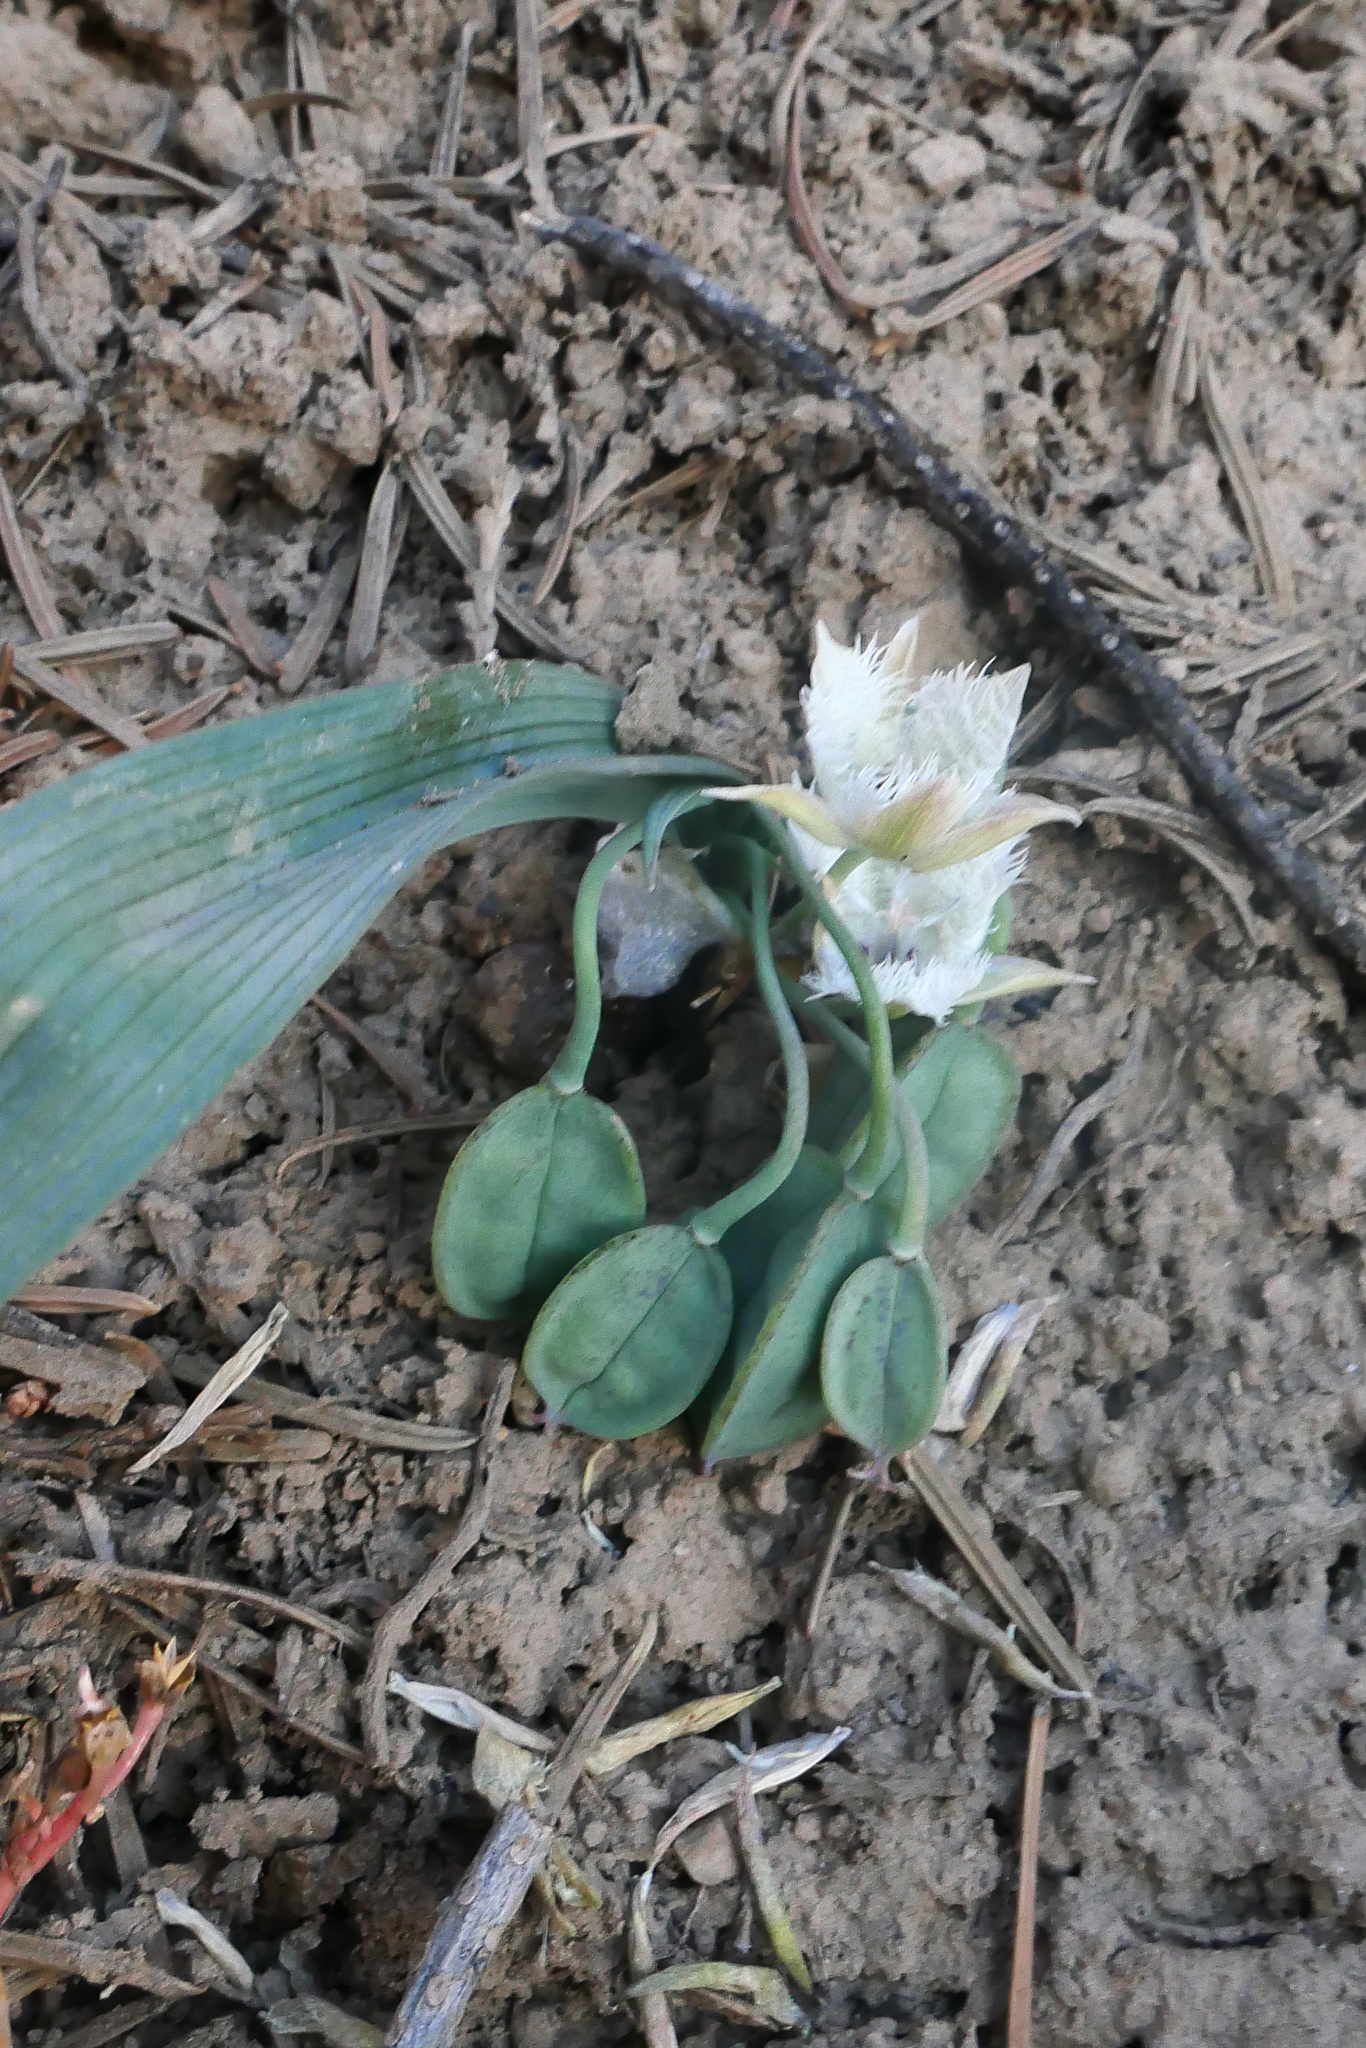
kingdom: Plantae
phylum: Tracheophyta
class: Liliopsida
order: Liliales
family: Liliaceae
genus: Calochortus
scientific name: Calochortus westonii
